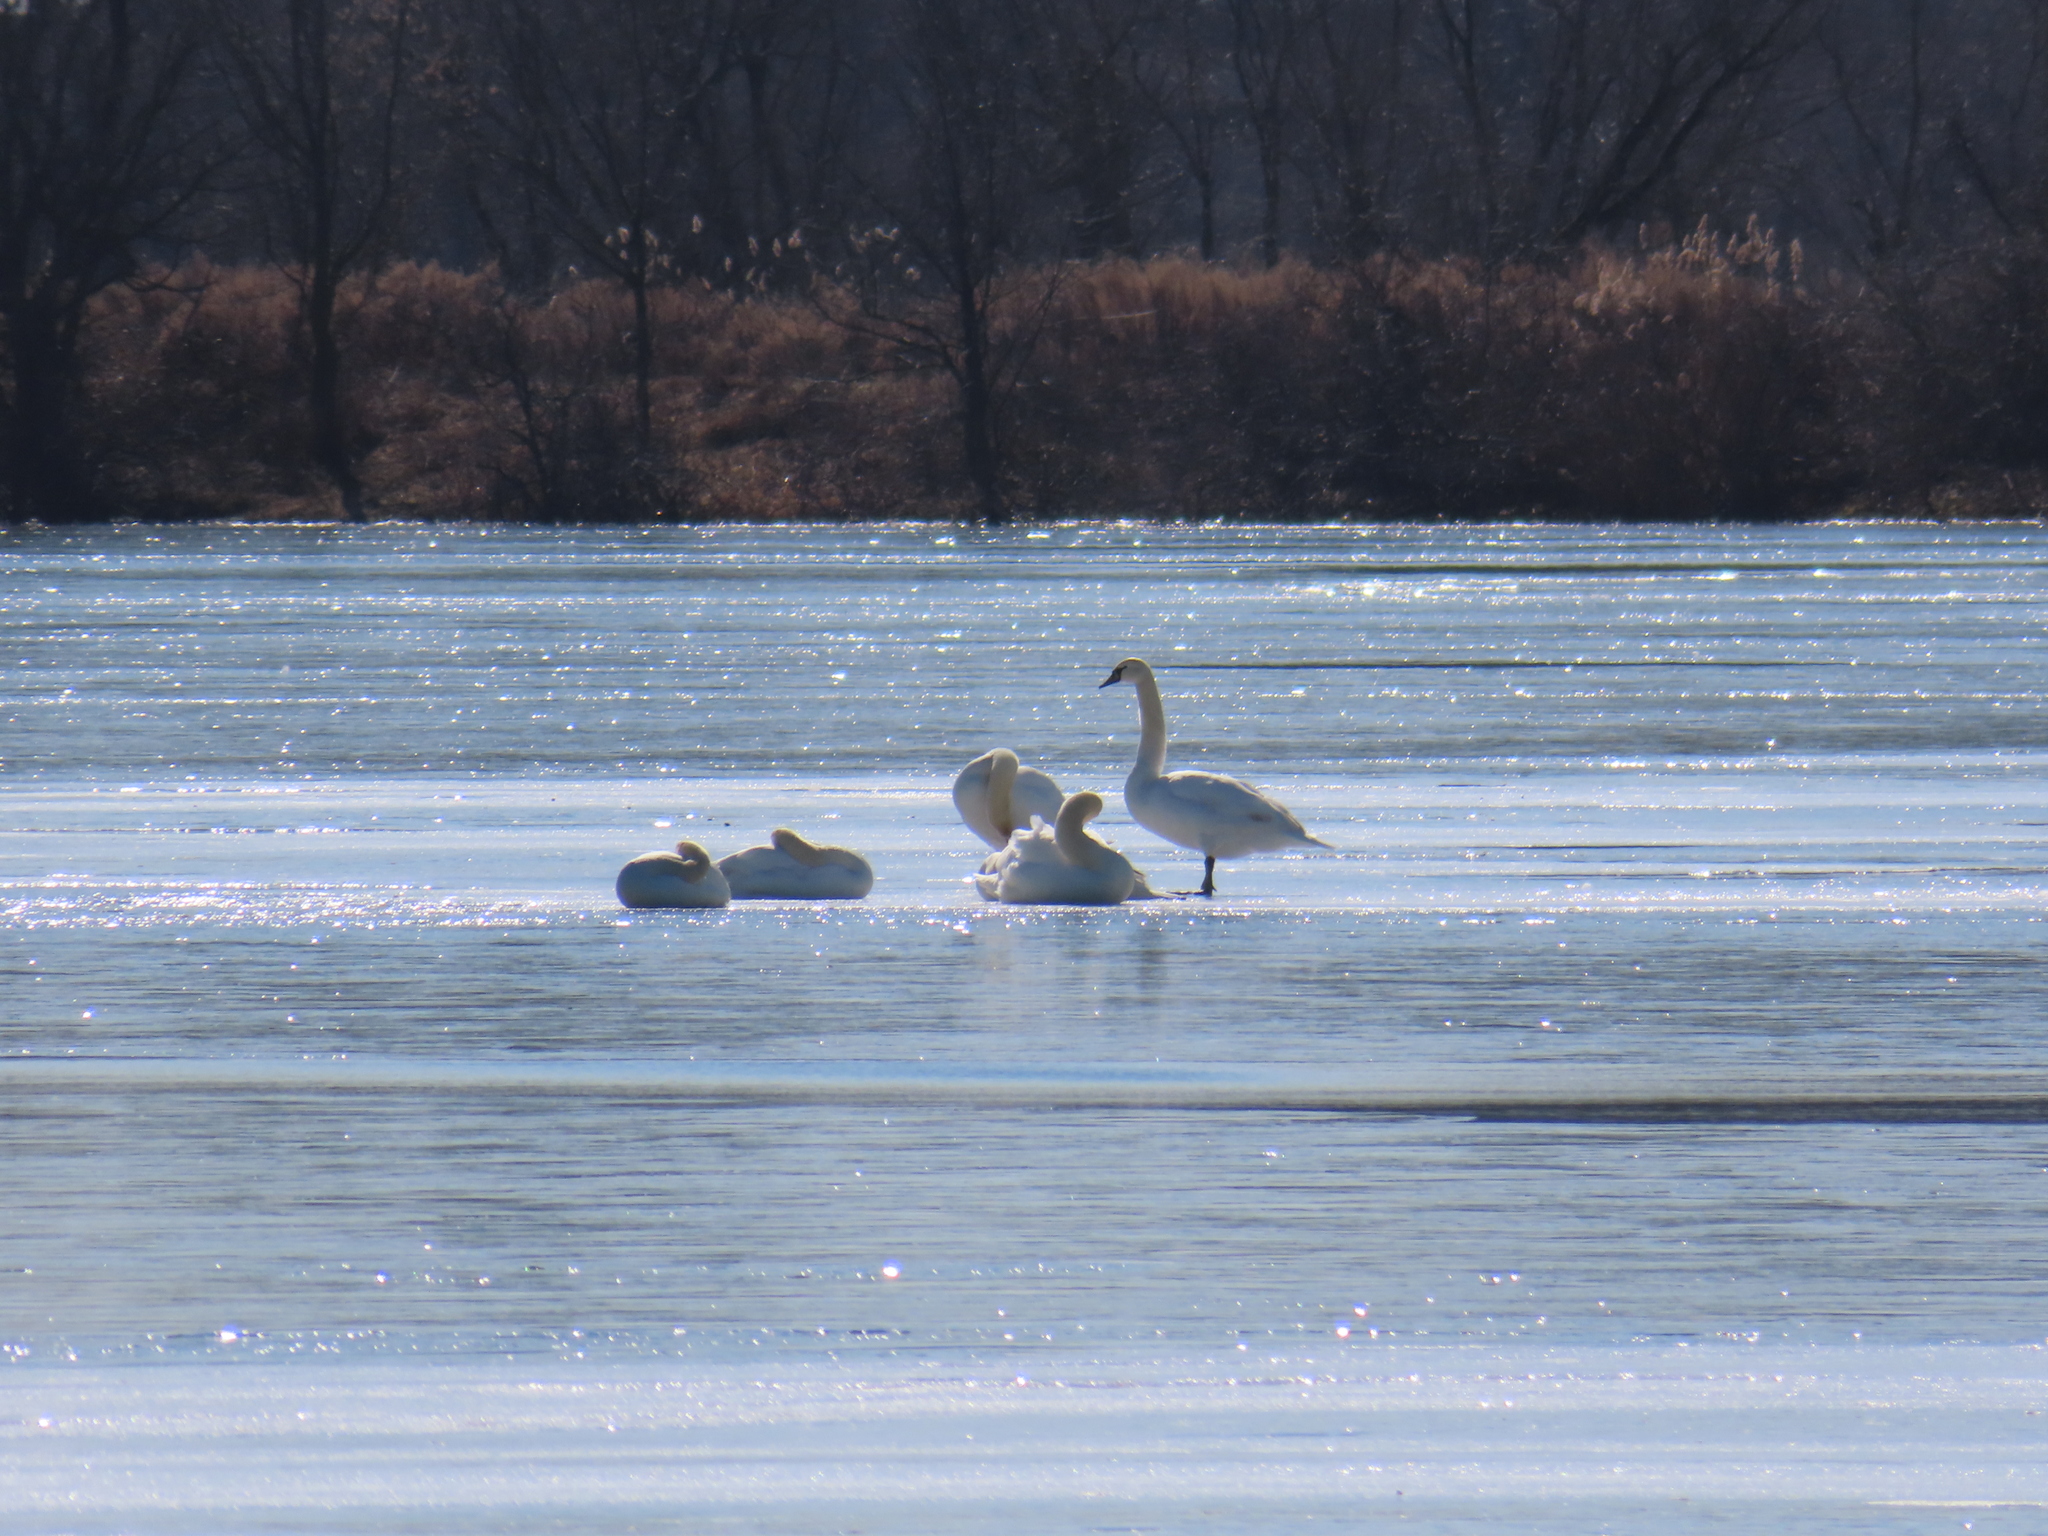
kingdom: Animalia
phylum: Chordata
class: Aves
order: Anseriformes
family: Anatidae
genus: Cygnus
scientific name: Cygnus olor
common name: Mute swan
